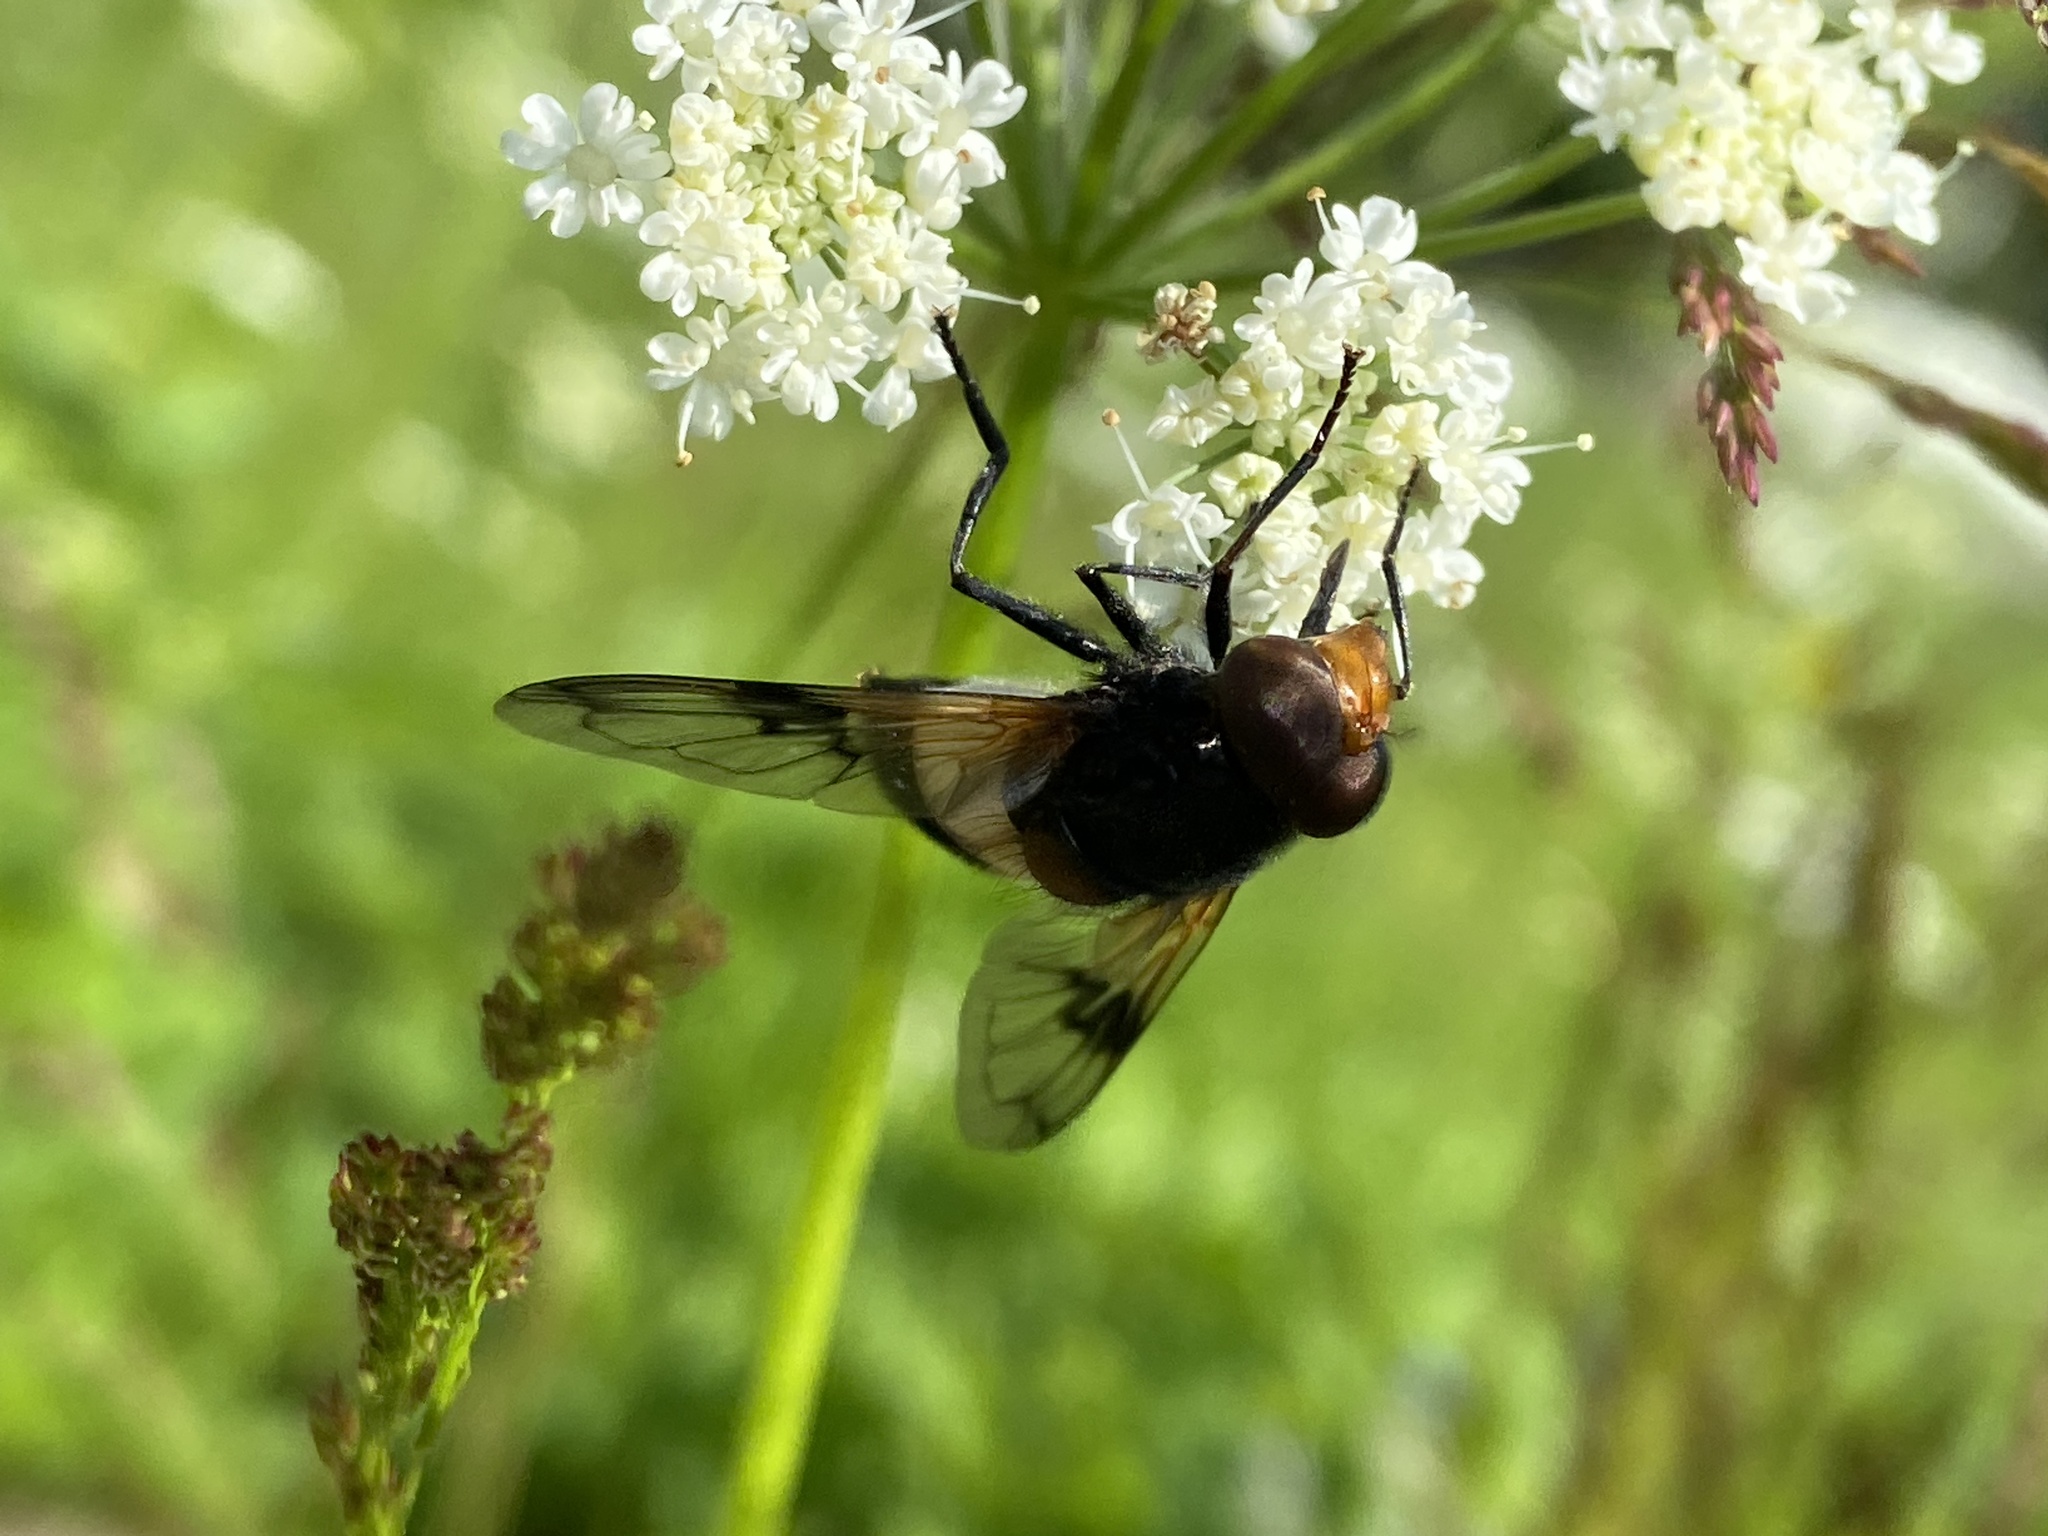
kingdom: Animalia
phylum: Arthropoda
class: Insecta
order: Diptera
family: Syrphidae
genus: Volucella
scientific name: Volucella pellucens
